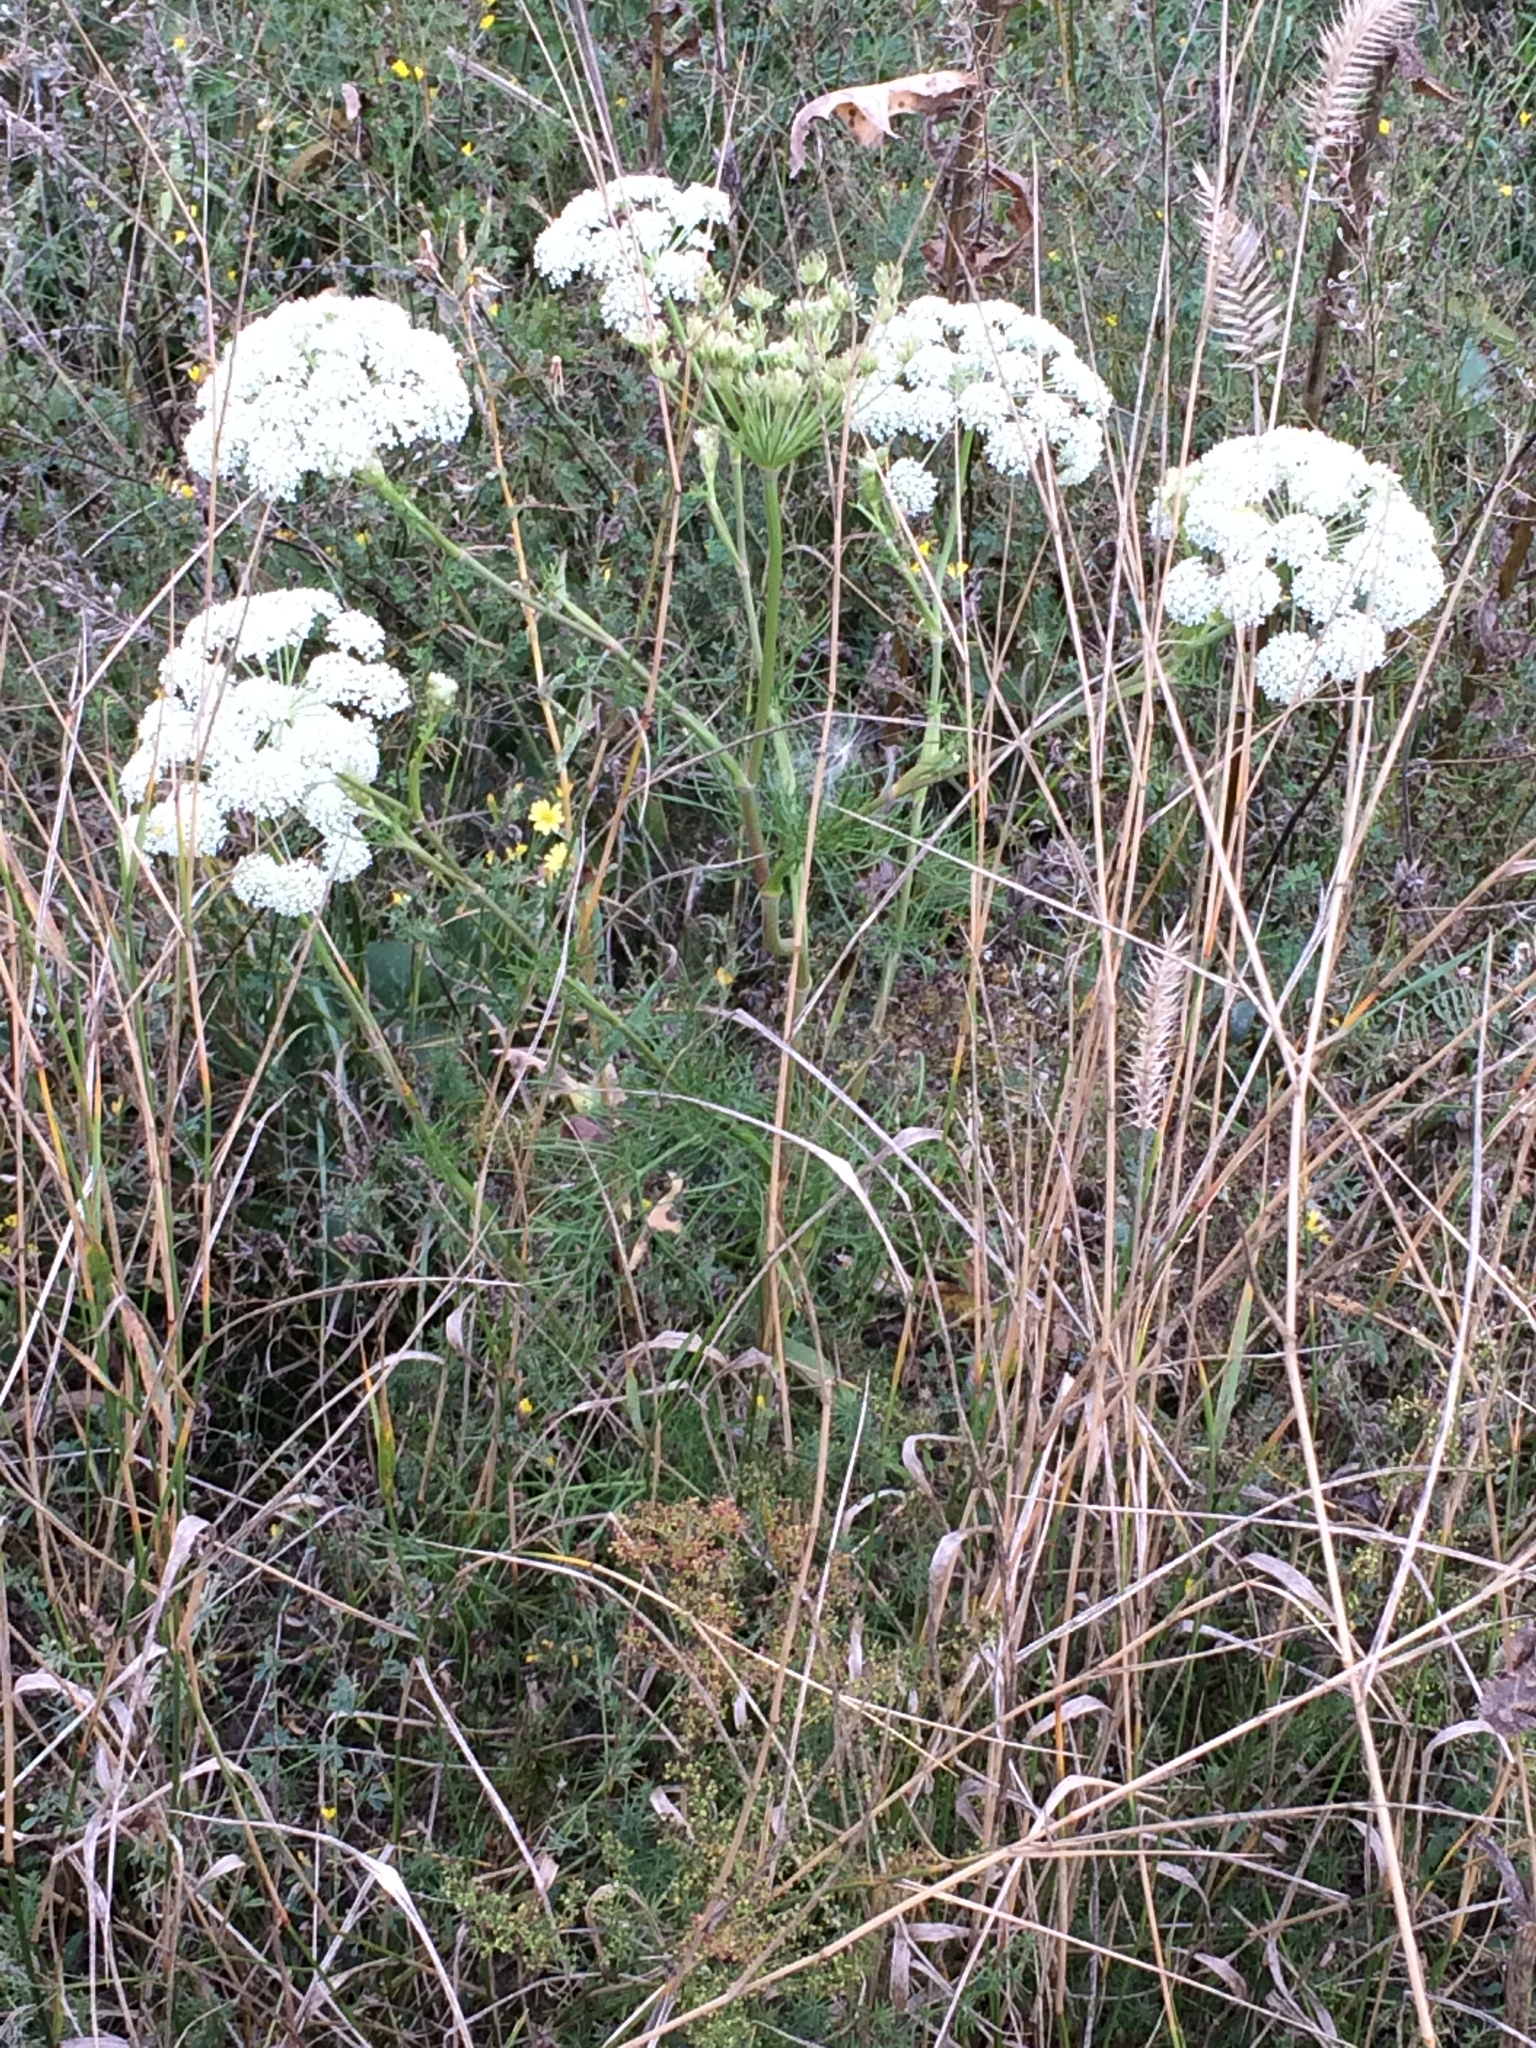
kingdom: Plantae
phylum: Tracheophyta
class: Magnoliopsida
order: Apiales
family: Apiaceae
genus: Seseli
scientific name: Seseli arenarium
